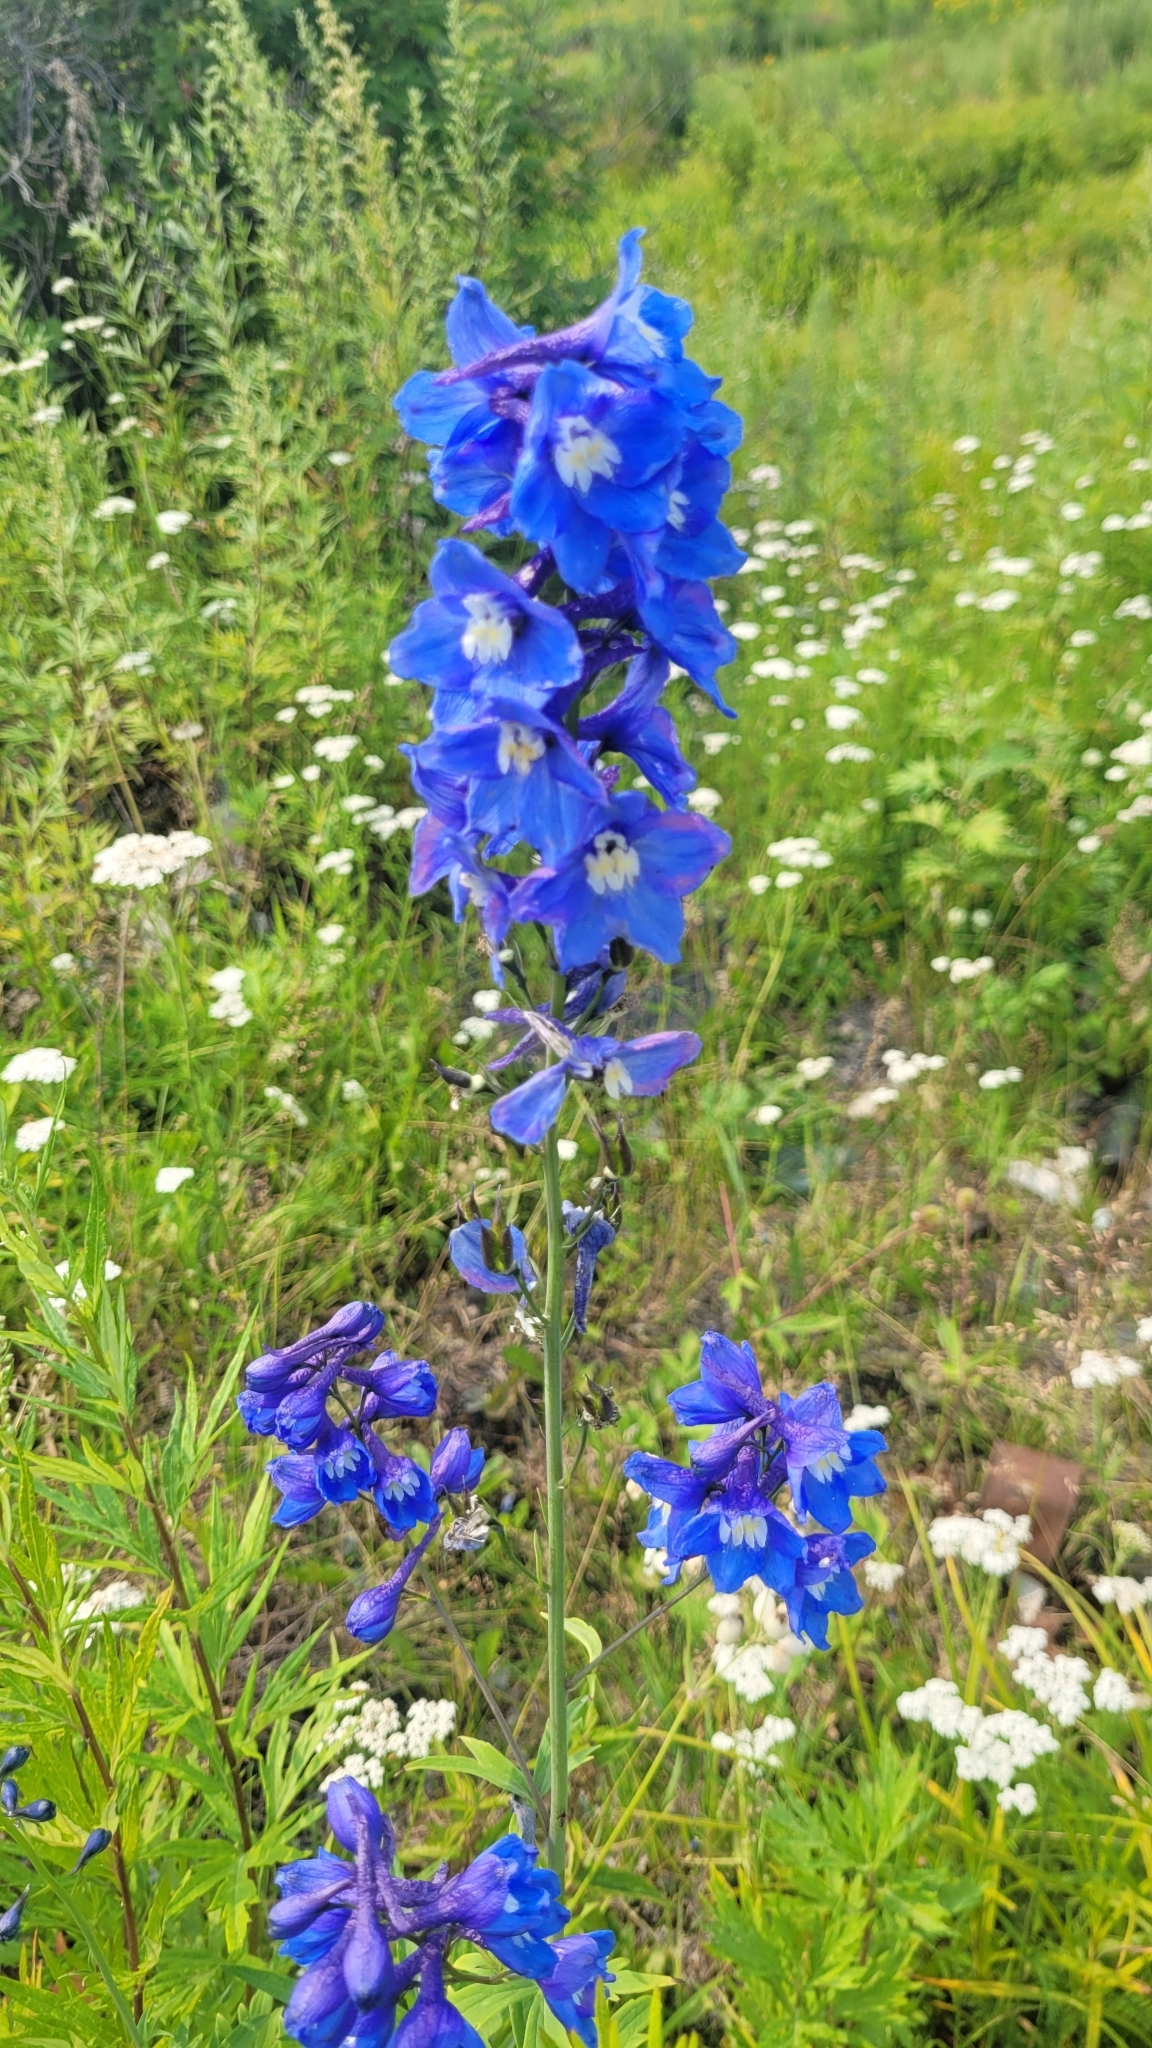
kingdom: Plantae
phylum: Tracheophyta
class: Magnoliopsida
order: Ranunculales
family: Ranunculaceae
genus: Delphinium
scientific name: Delphinium elatum
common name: Candle larkspur
